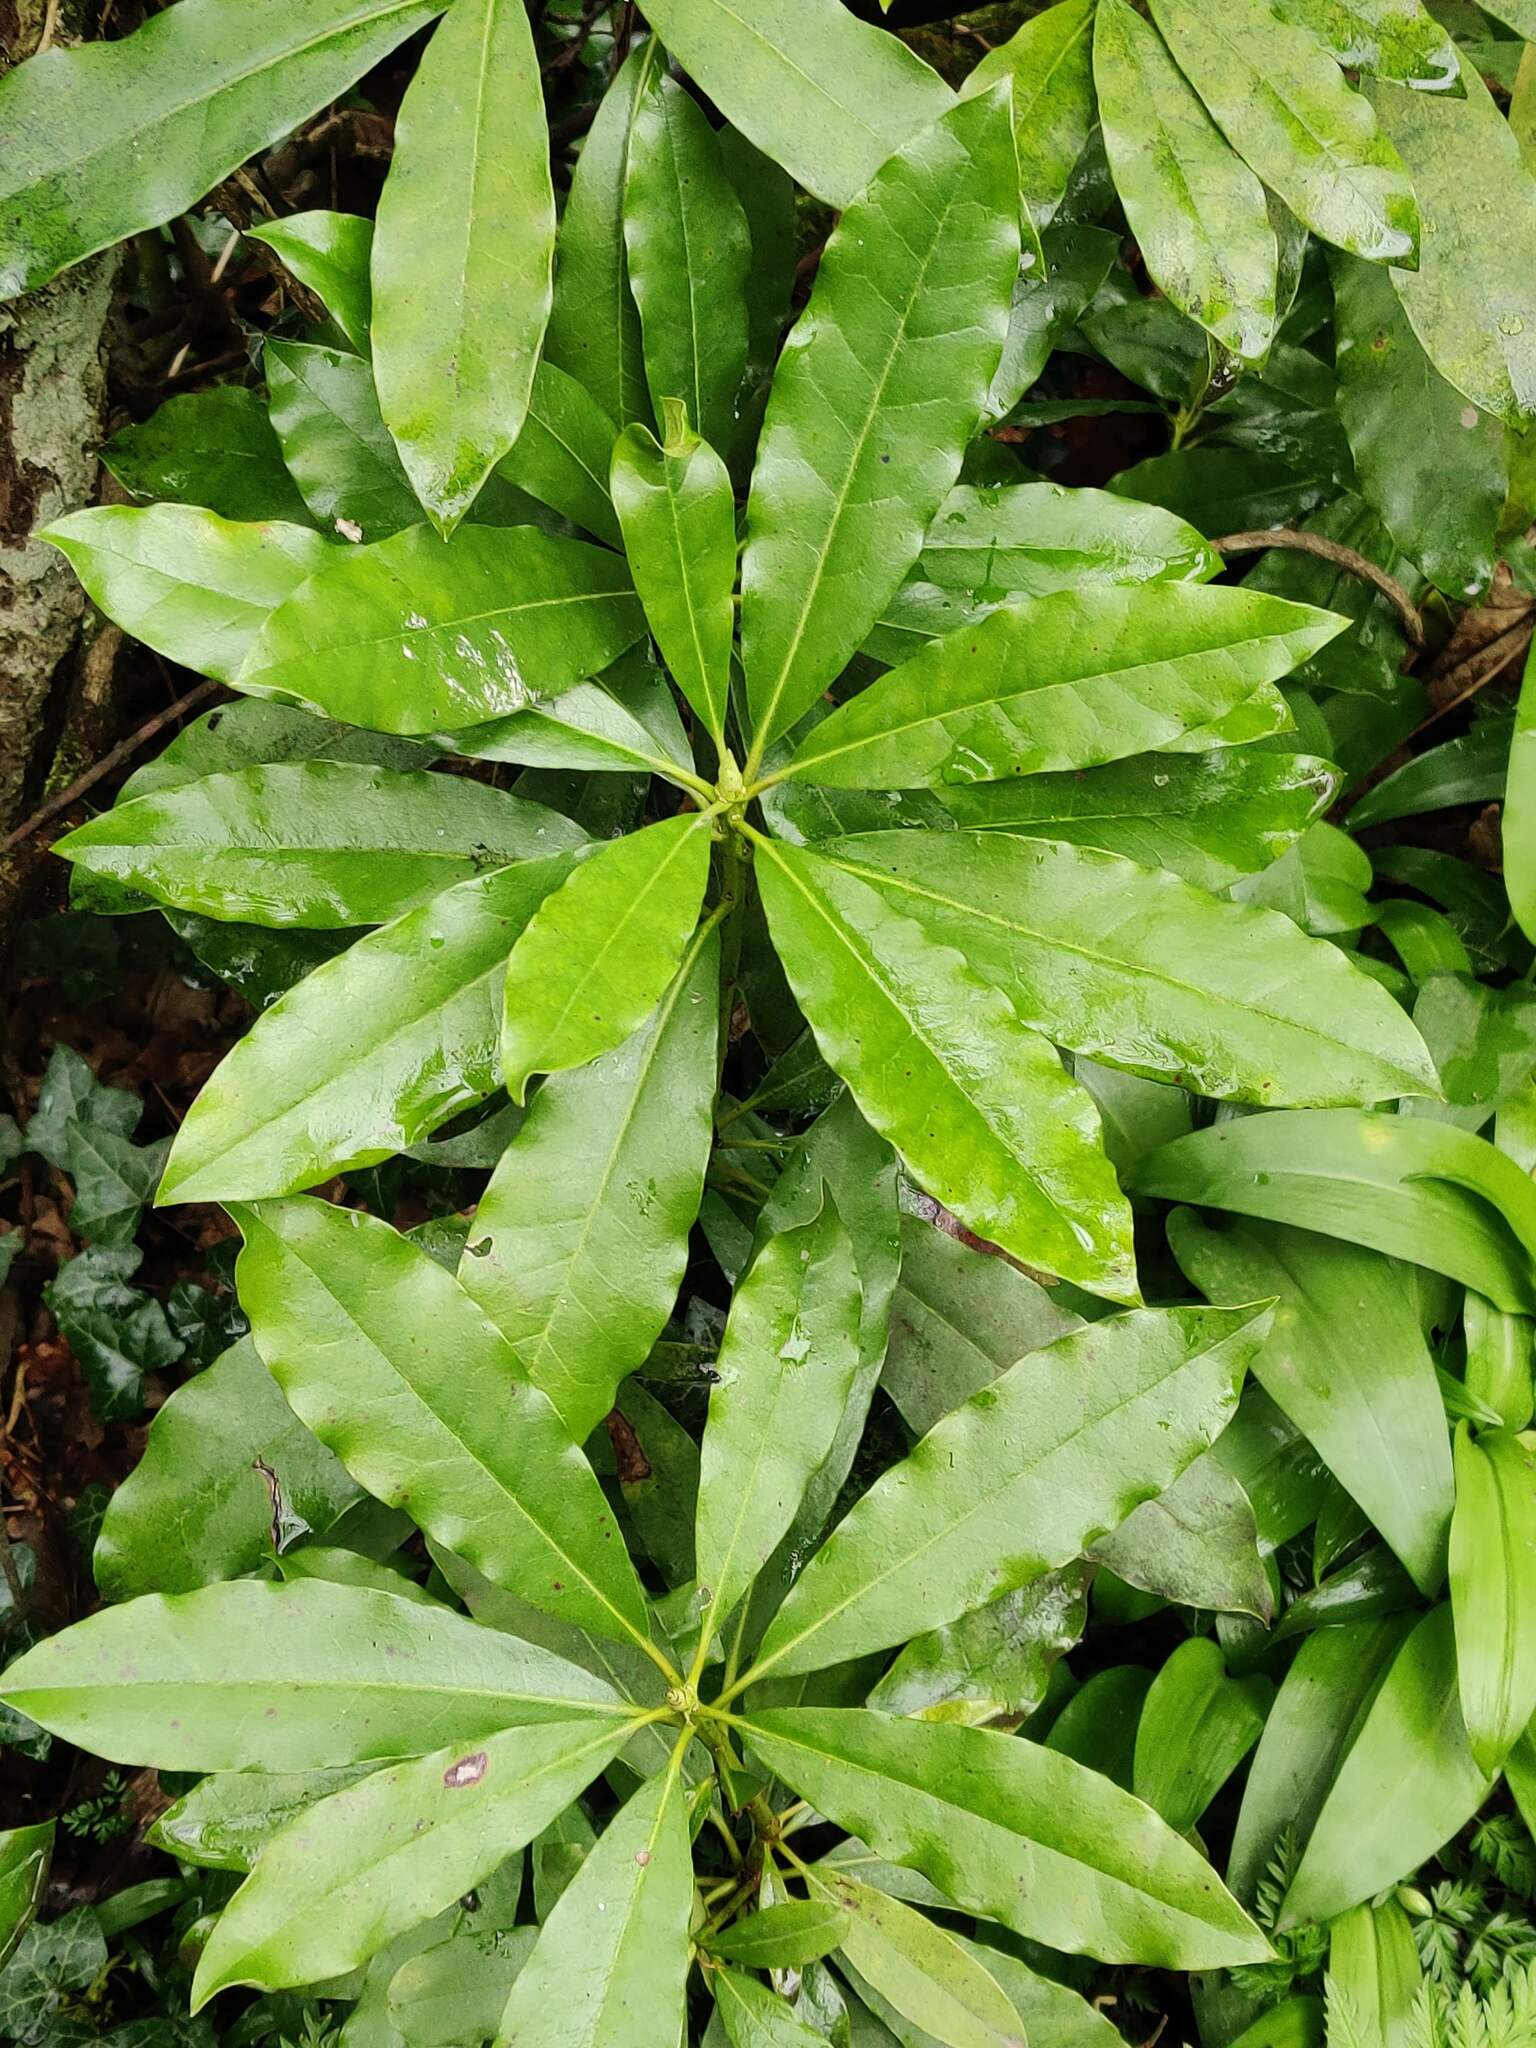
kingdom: Plantae
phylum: Tracheophyta
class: Magnoliopsida
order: Ericales
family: Ericaceae
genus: Rhododendron
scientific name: Rhododendron ponticum
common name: Rhododendron
